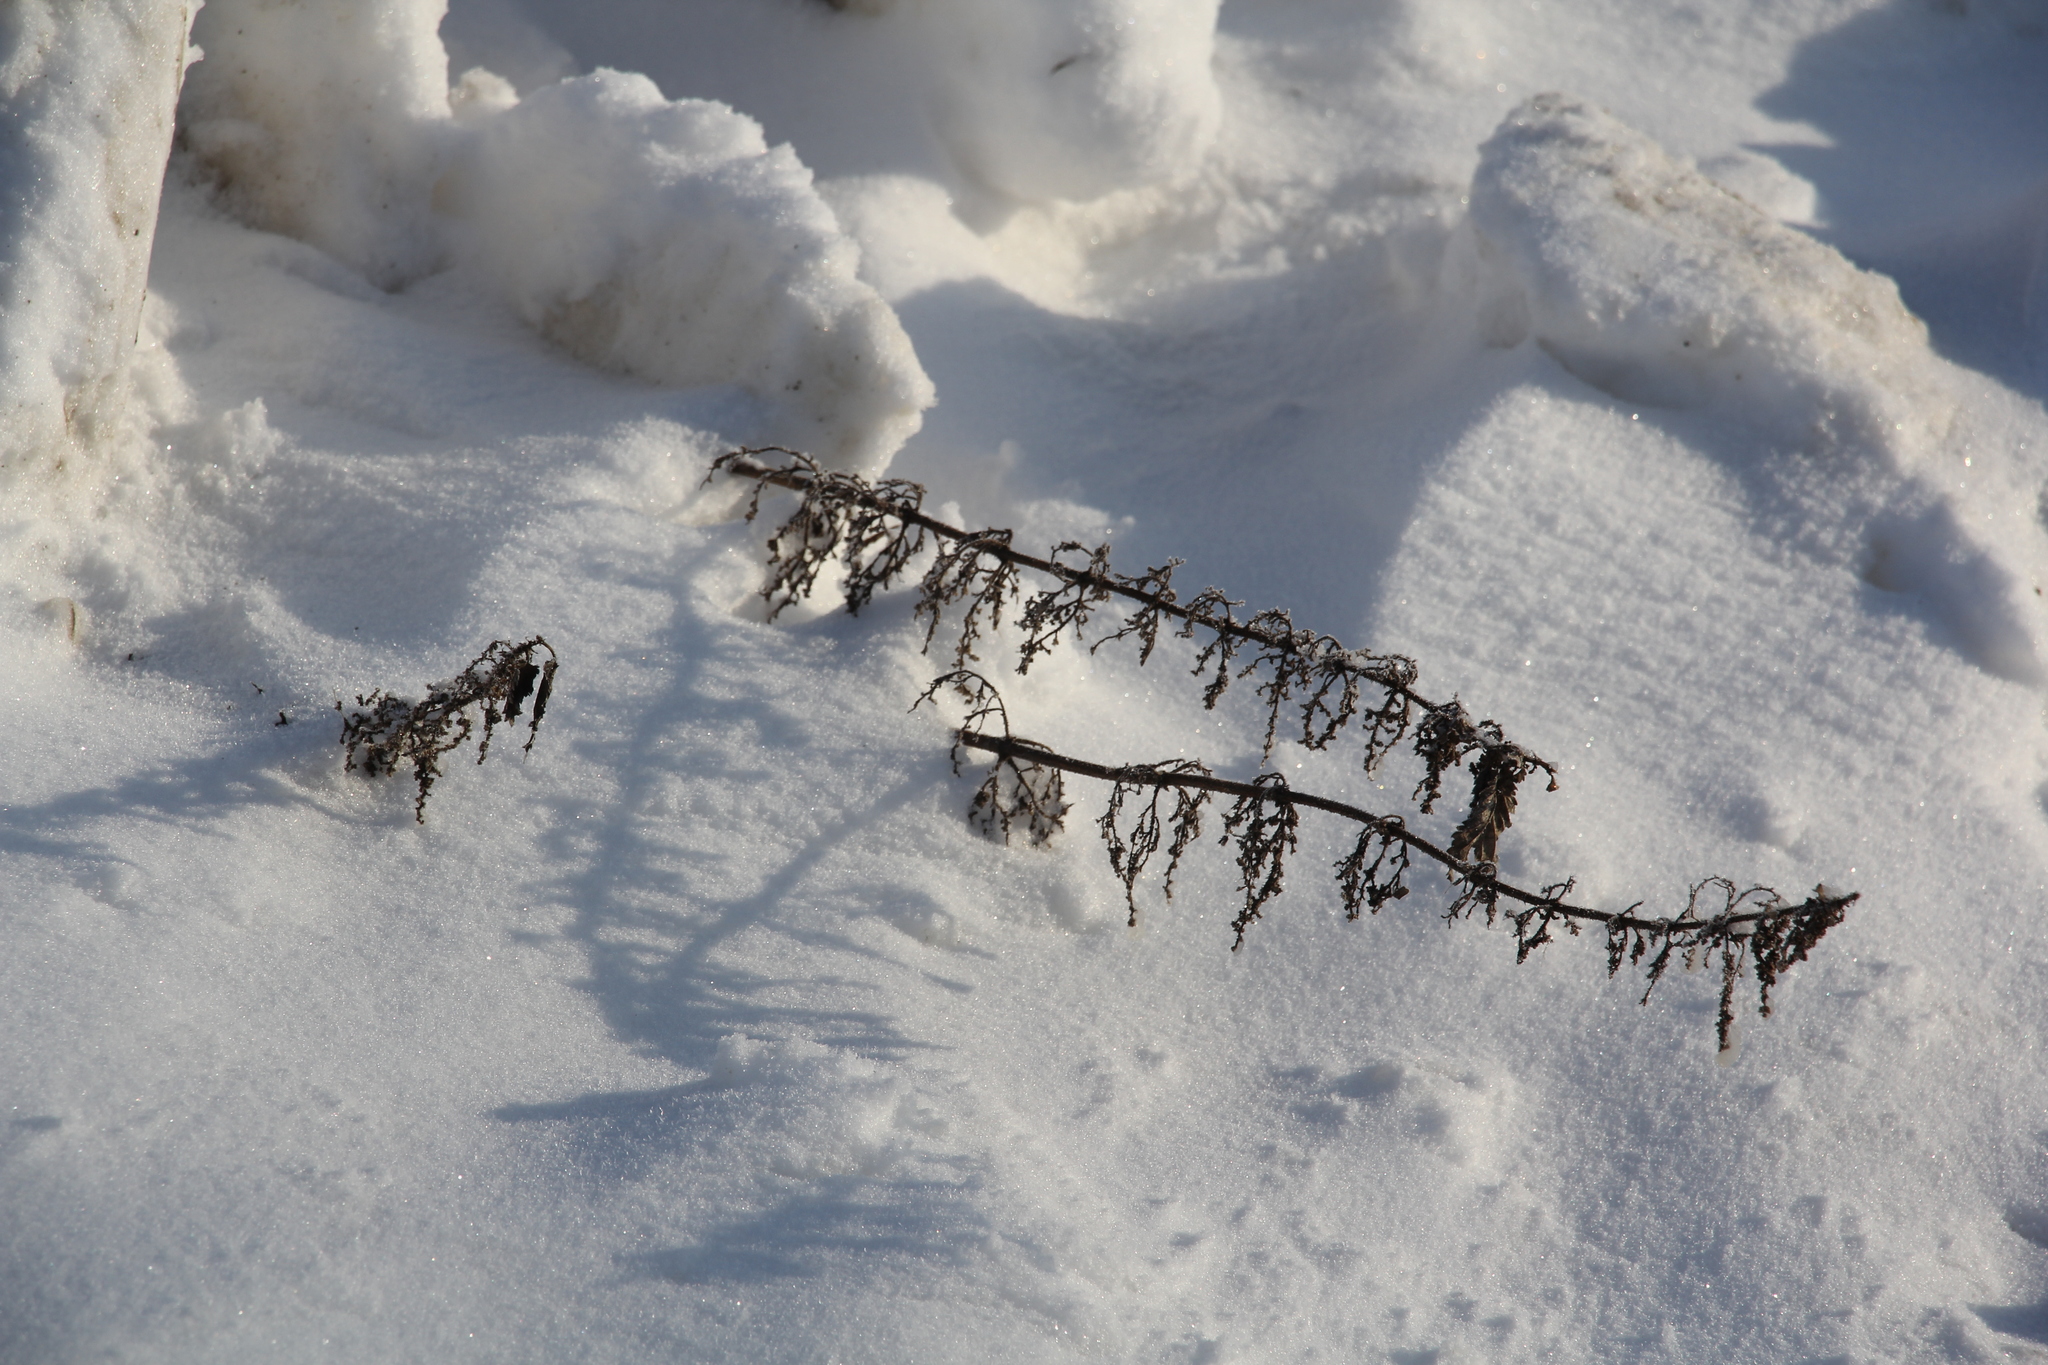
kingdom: Plantae
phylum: Tracheophyta
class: Magnoliopsida
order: Rosales
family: Urticaceae
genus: Urtica
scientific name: Urtica dioica
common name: Common nettle
